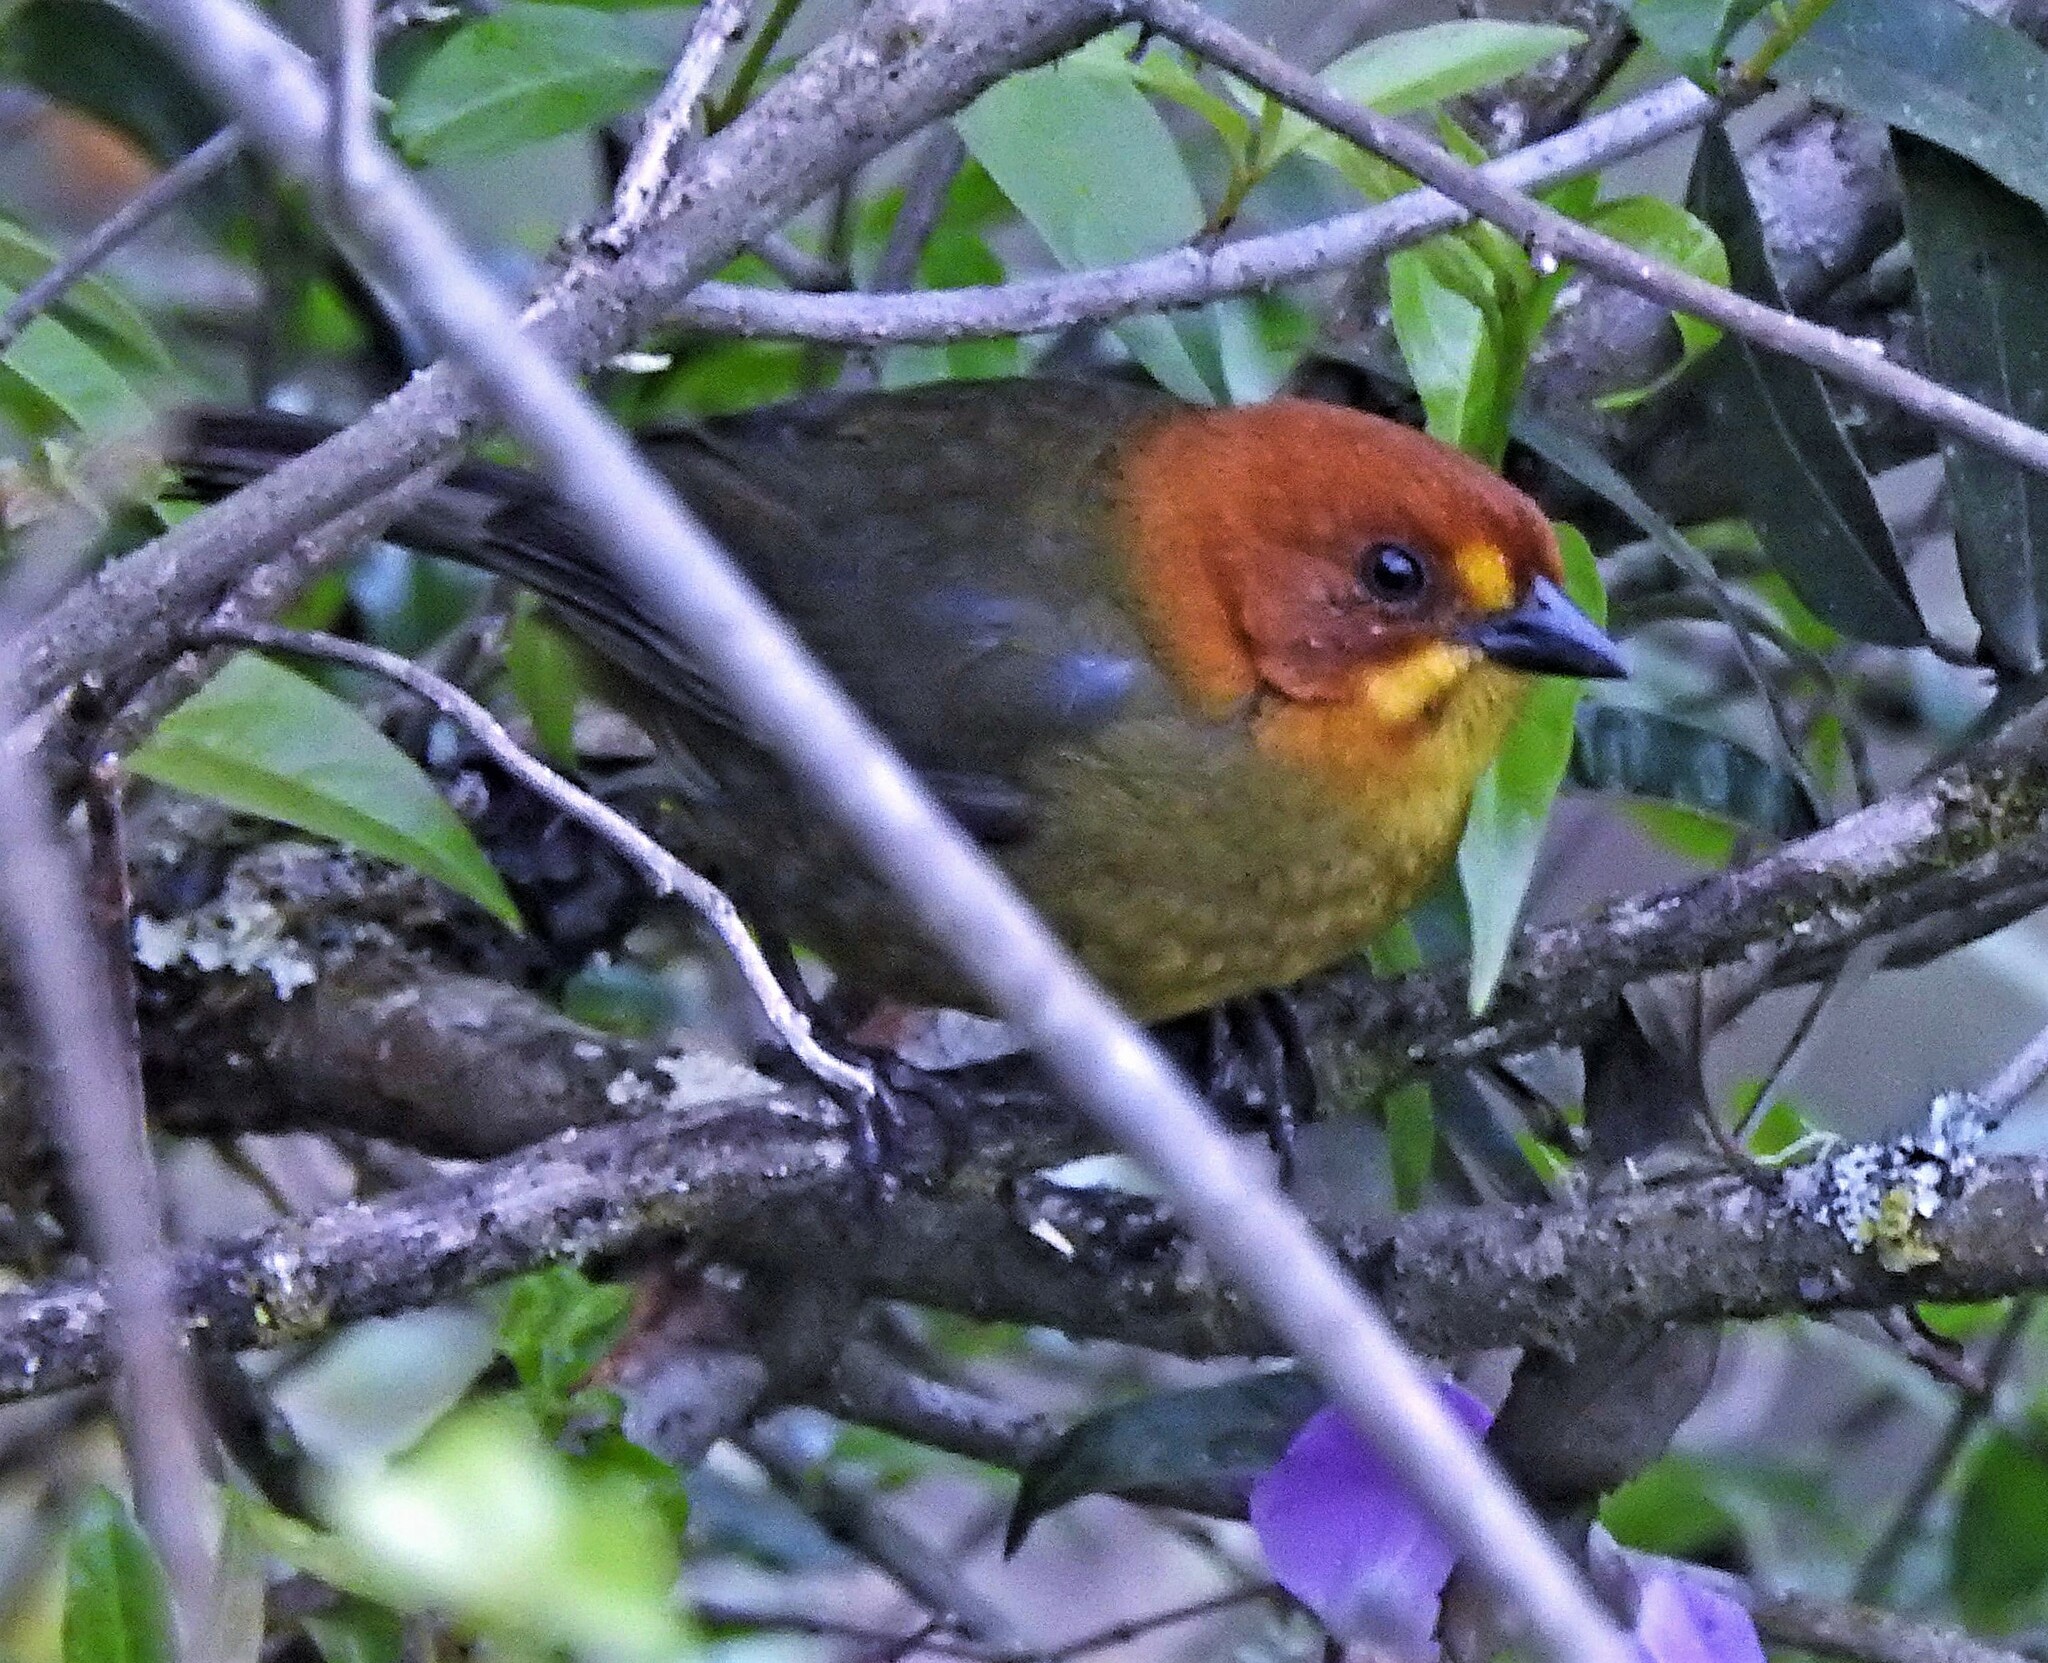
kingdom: Animalia
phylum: Chordata
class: Aves
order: Passeriformes
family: Passerellidae
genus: Atlapetes
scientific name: Atlapetes fulviceps
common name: Fulvous-headed brushfinch
